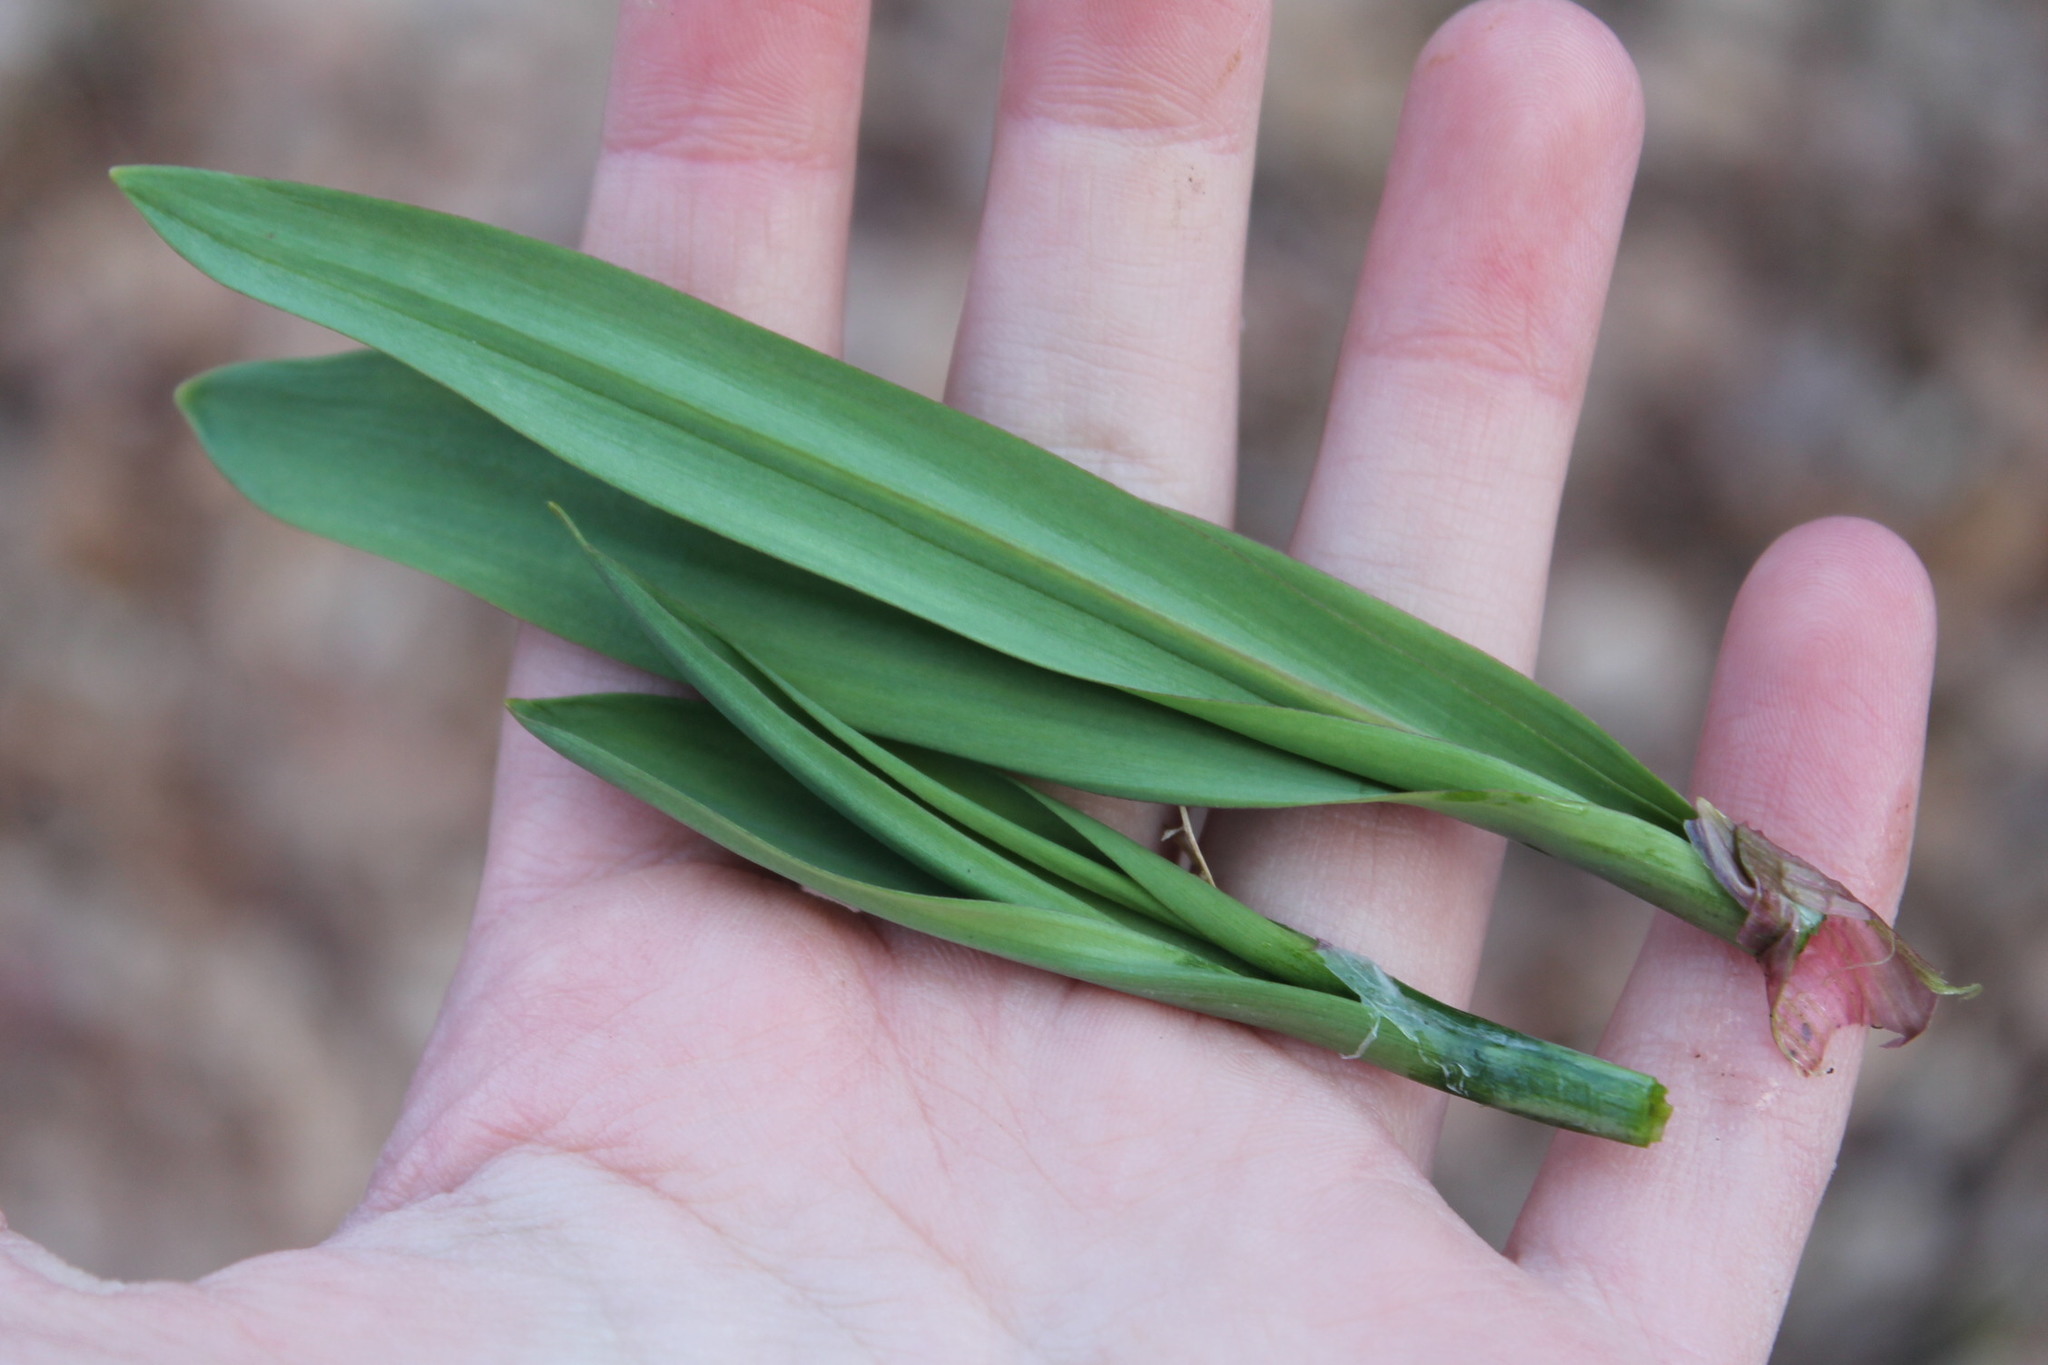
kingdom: Plantae
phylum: Tracheophyta
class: Liliopsida
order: Asparagales
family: Amaryllidaceae
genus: Allium
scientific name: Allium tricoccum
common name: Ramp
